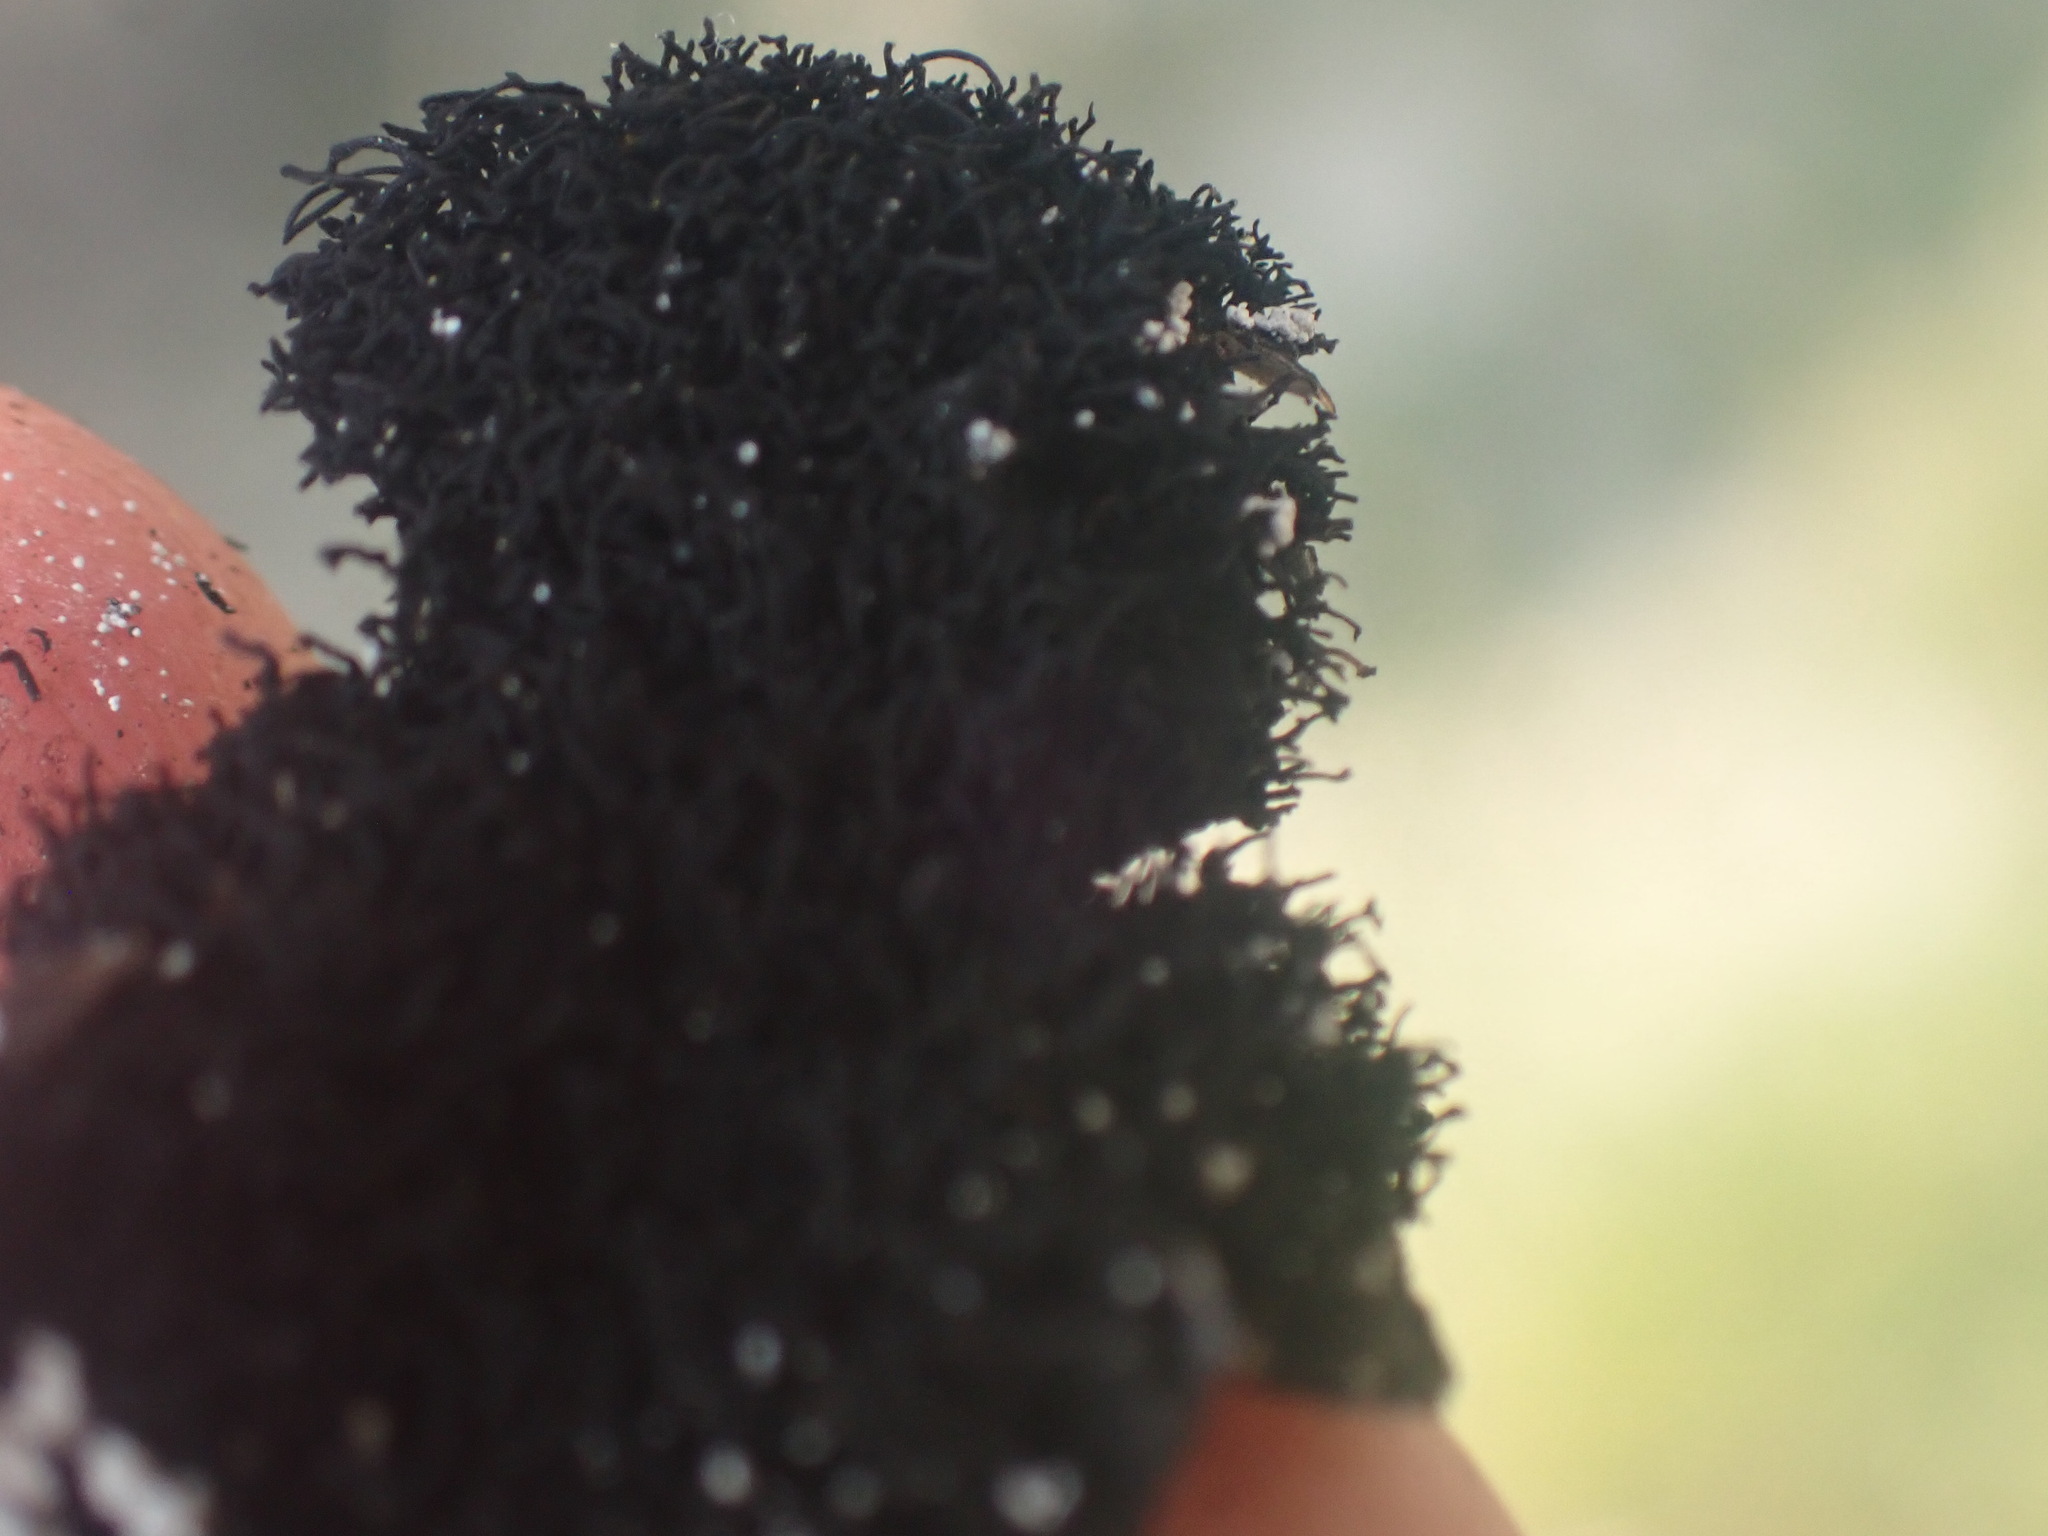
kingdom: Fungi
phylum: Ascomycota
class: Lecanoromycetes
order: Umbilicariales
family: Umbilicariaceae
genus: Umbilicaria
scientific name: Umbilicaria americana
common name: Frosted rock tripe
